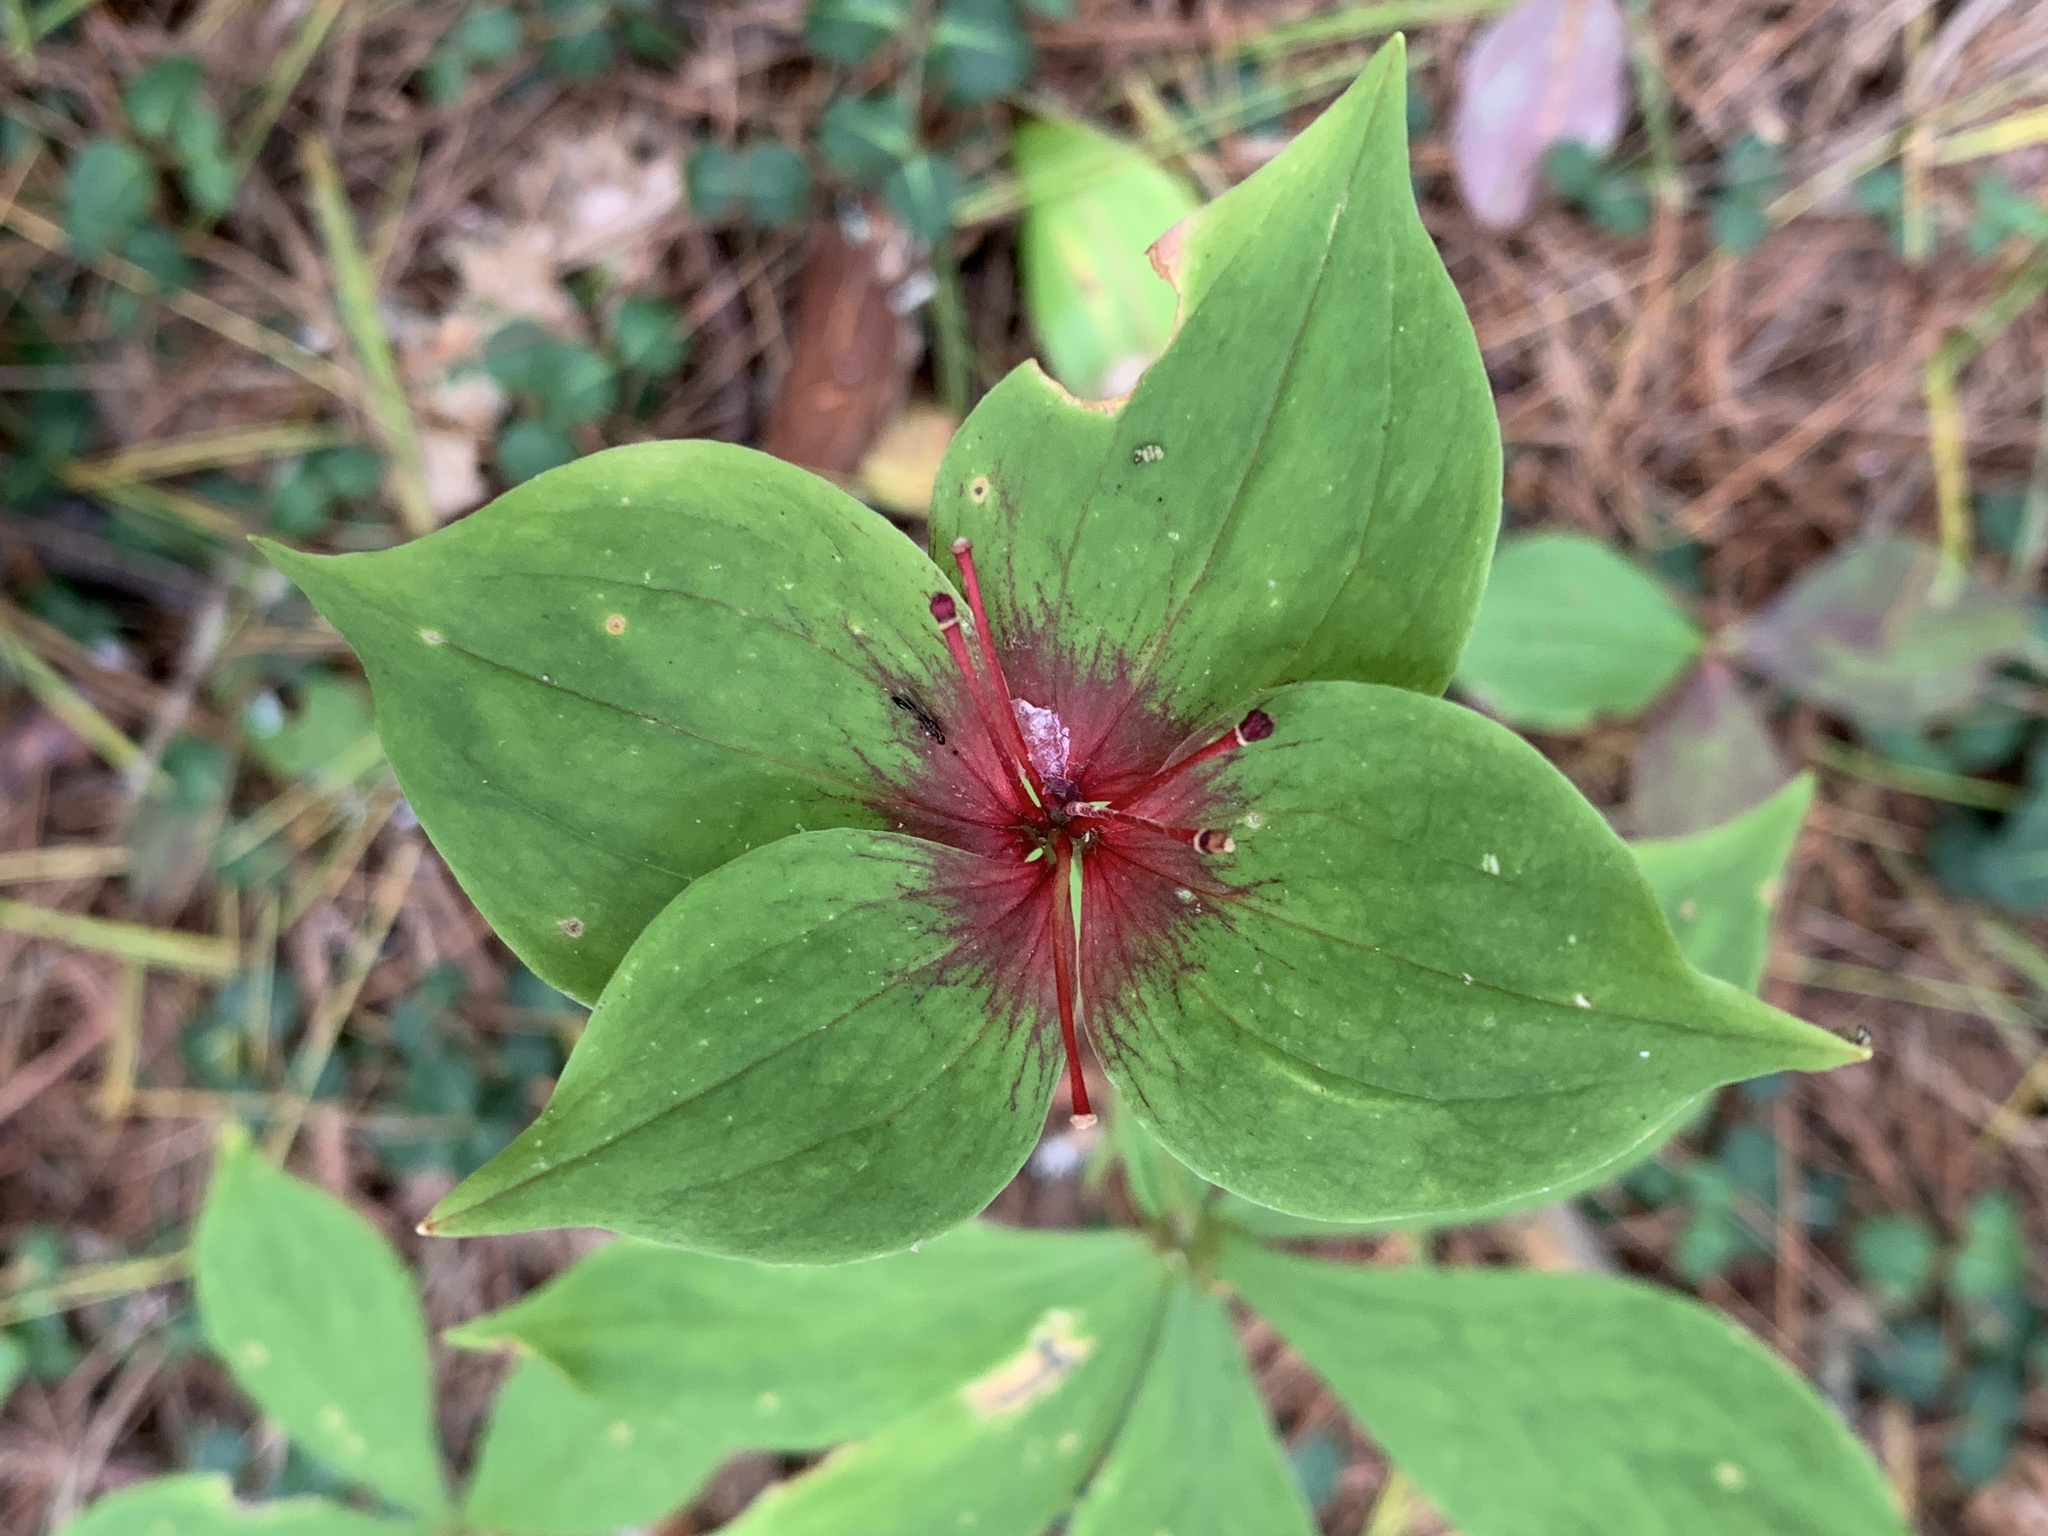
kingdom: Plantae
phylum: Tracheophyta
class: Liliopsida
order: Liliales
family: Liliaceae
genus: Medeola
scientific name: Medeola virginiana
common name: Indian cucumber-root
